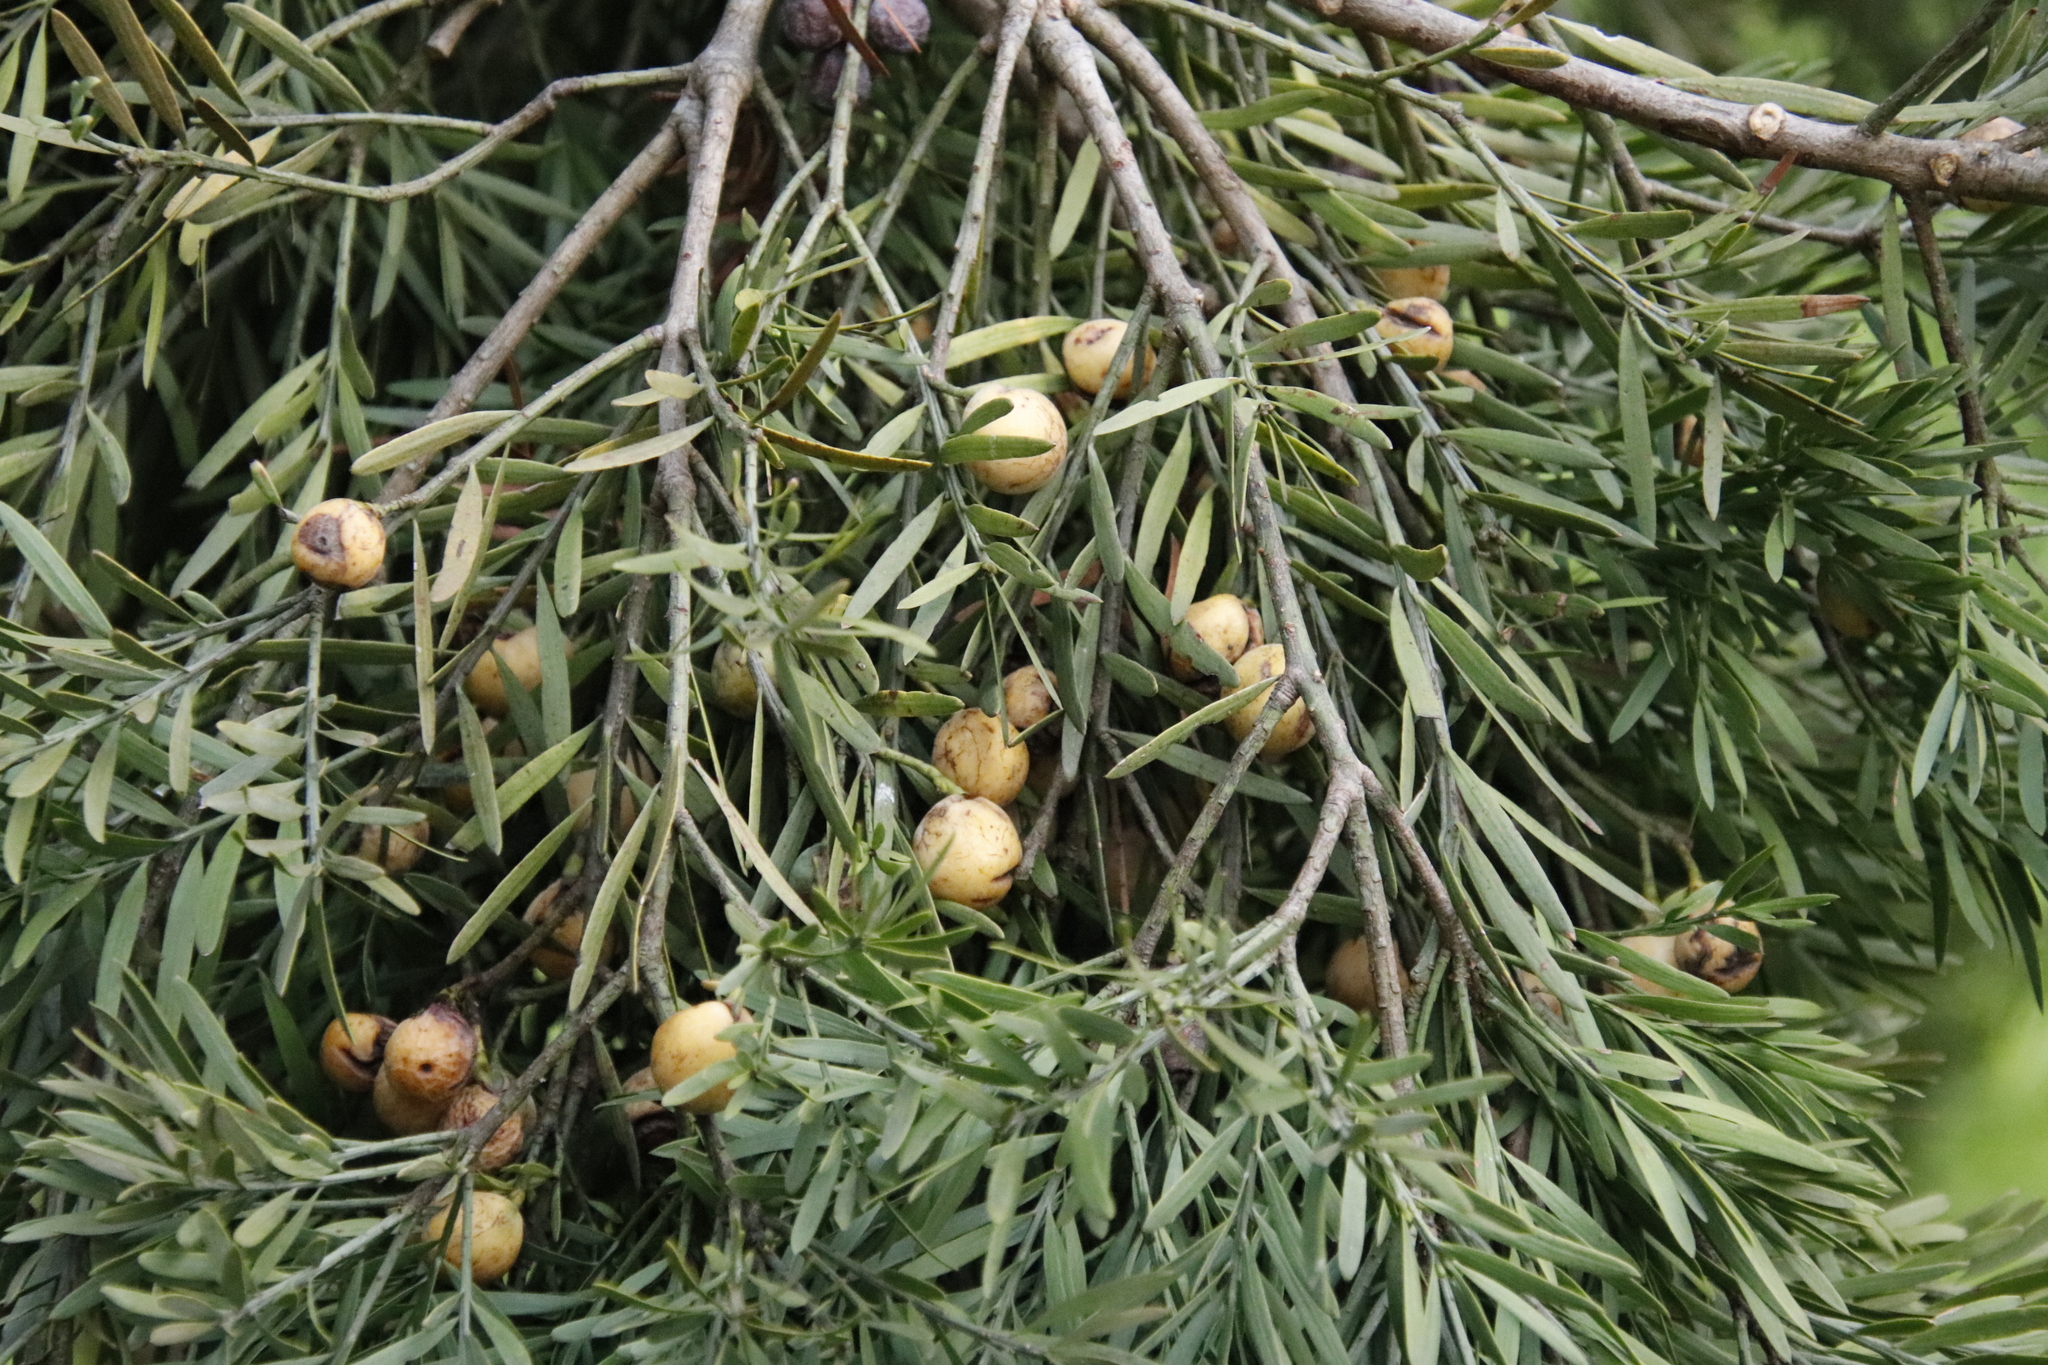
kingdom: Plantae
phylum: Tracheophyta
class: Pinopsida
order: Pinales
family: Podocarpaceae
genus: Afrocarpus
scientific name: Afrocarpus falcatus
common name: Bastard yellowwood
